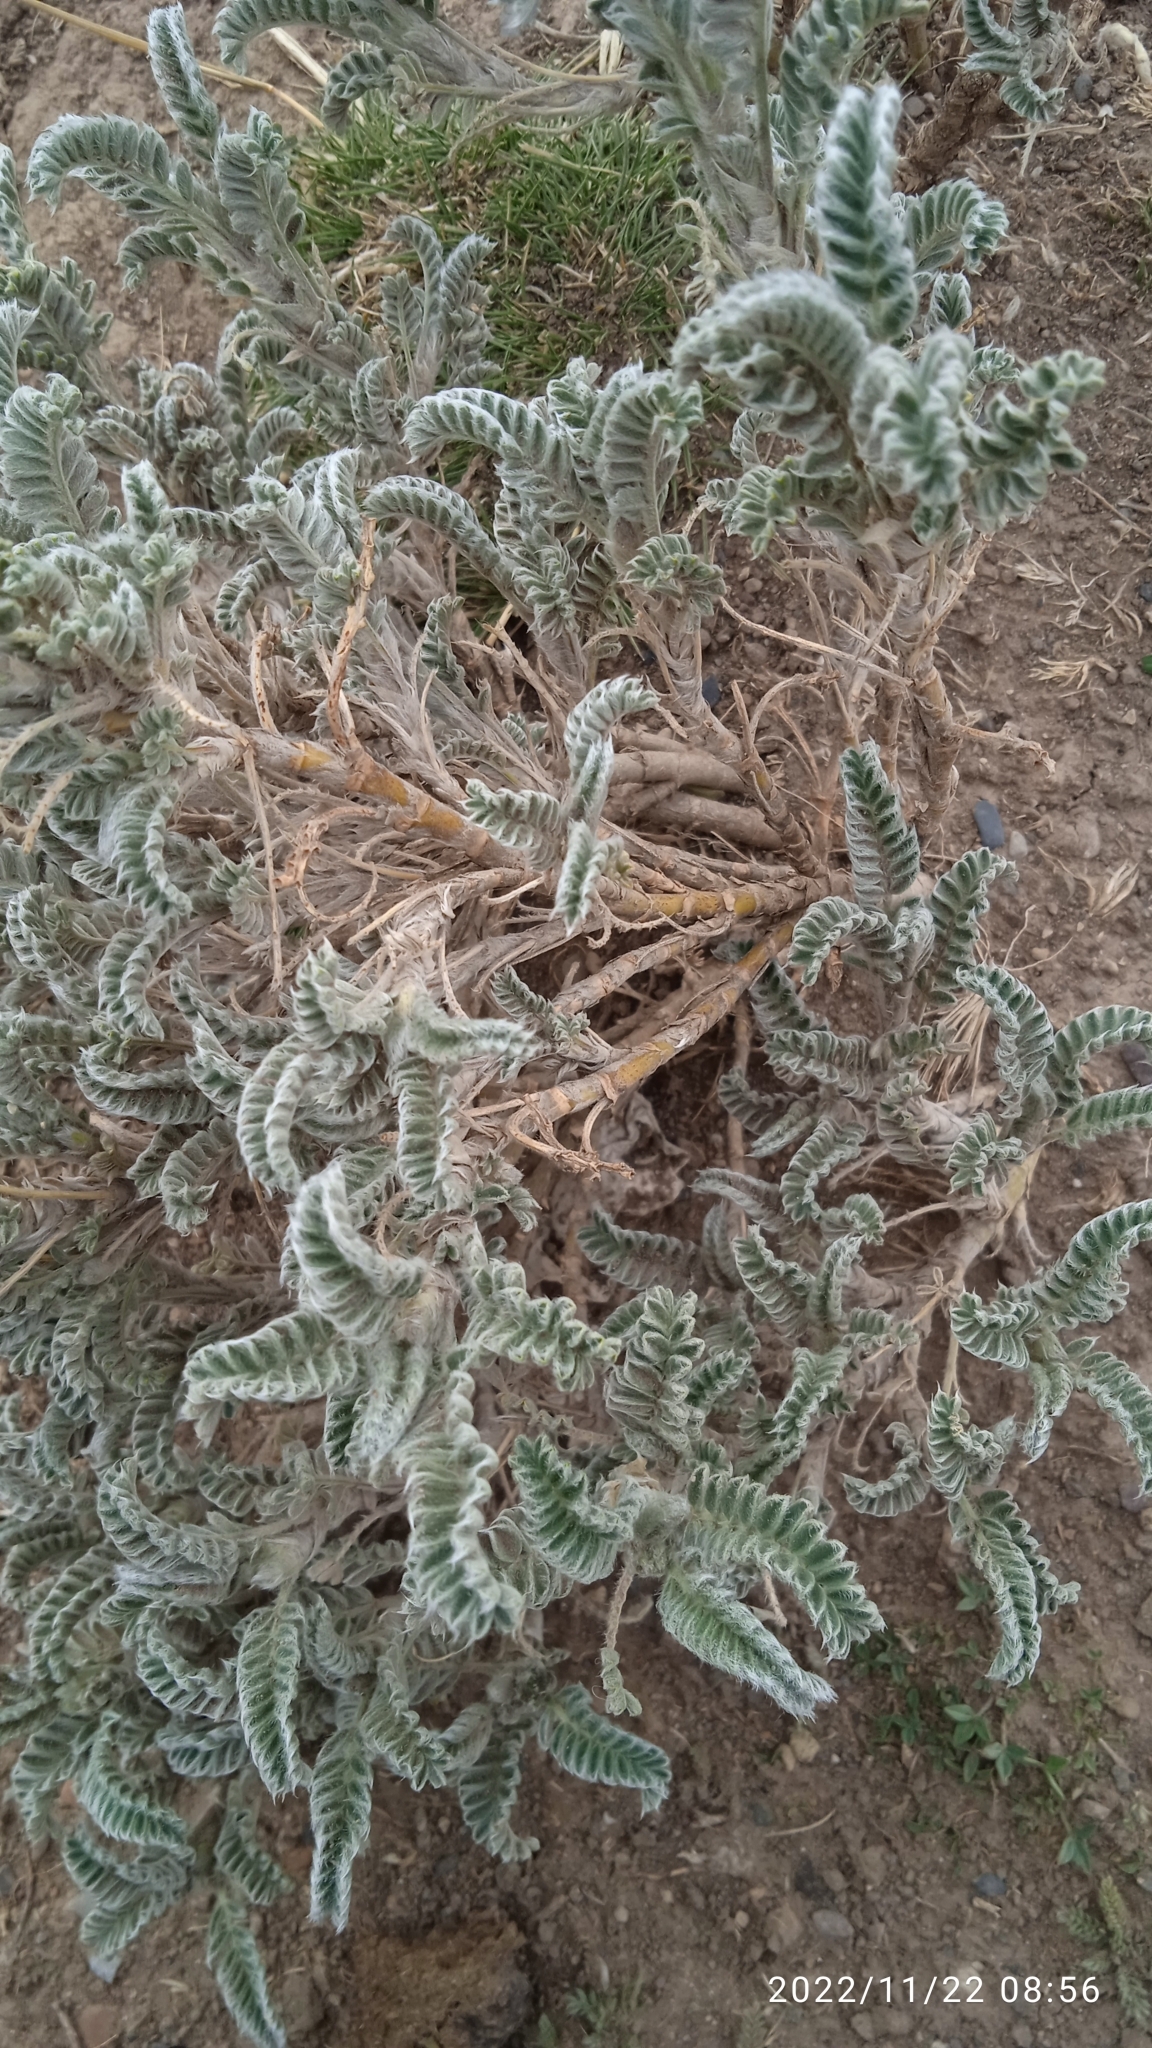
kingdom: Plantae
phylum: Tracheophyta
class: Magnoliopsida
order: Fabales
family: Fabaceae
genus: Astragalus
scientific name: Astragalus garbancillo
